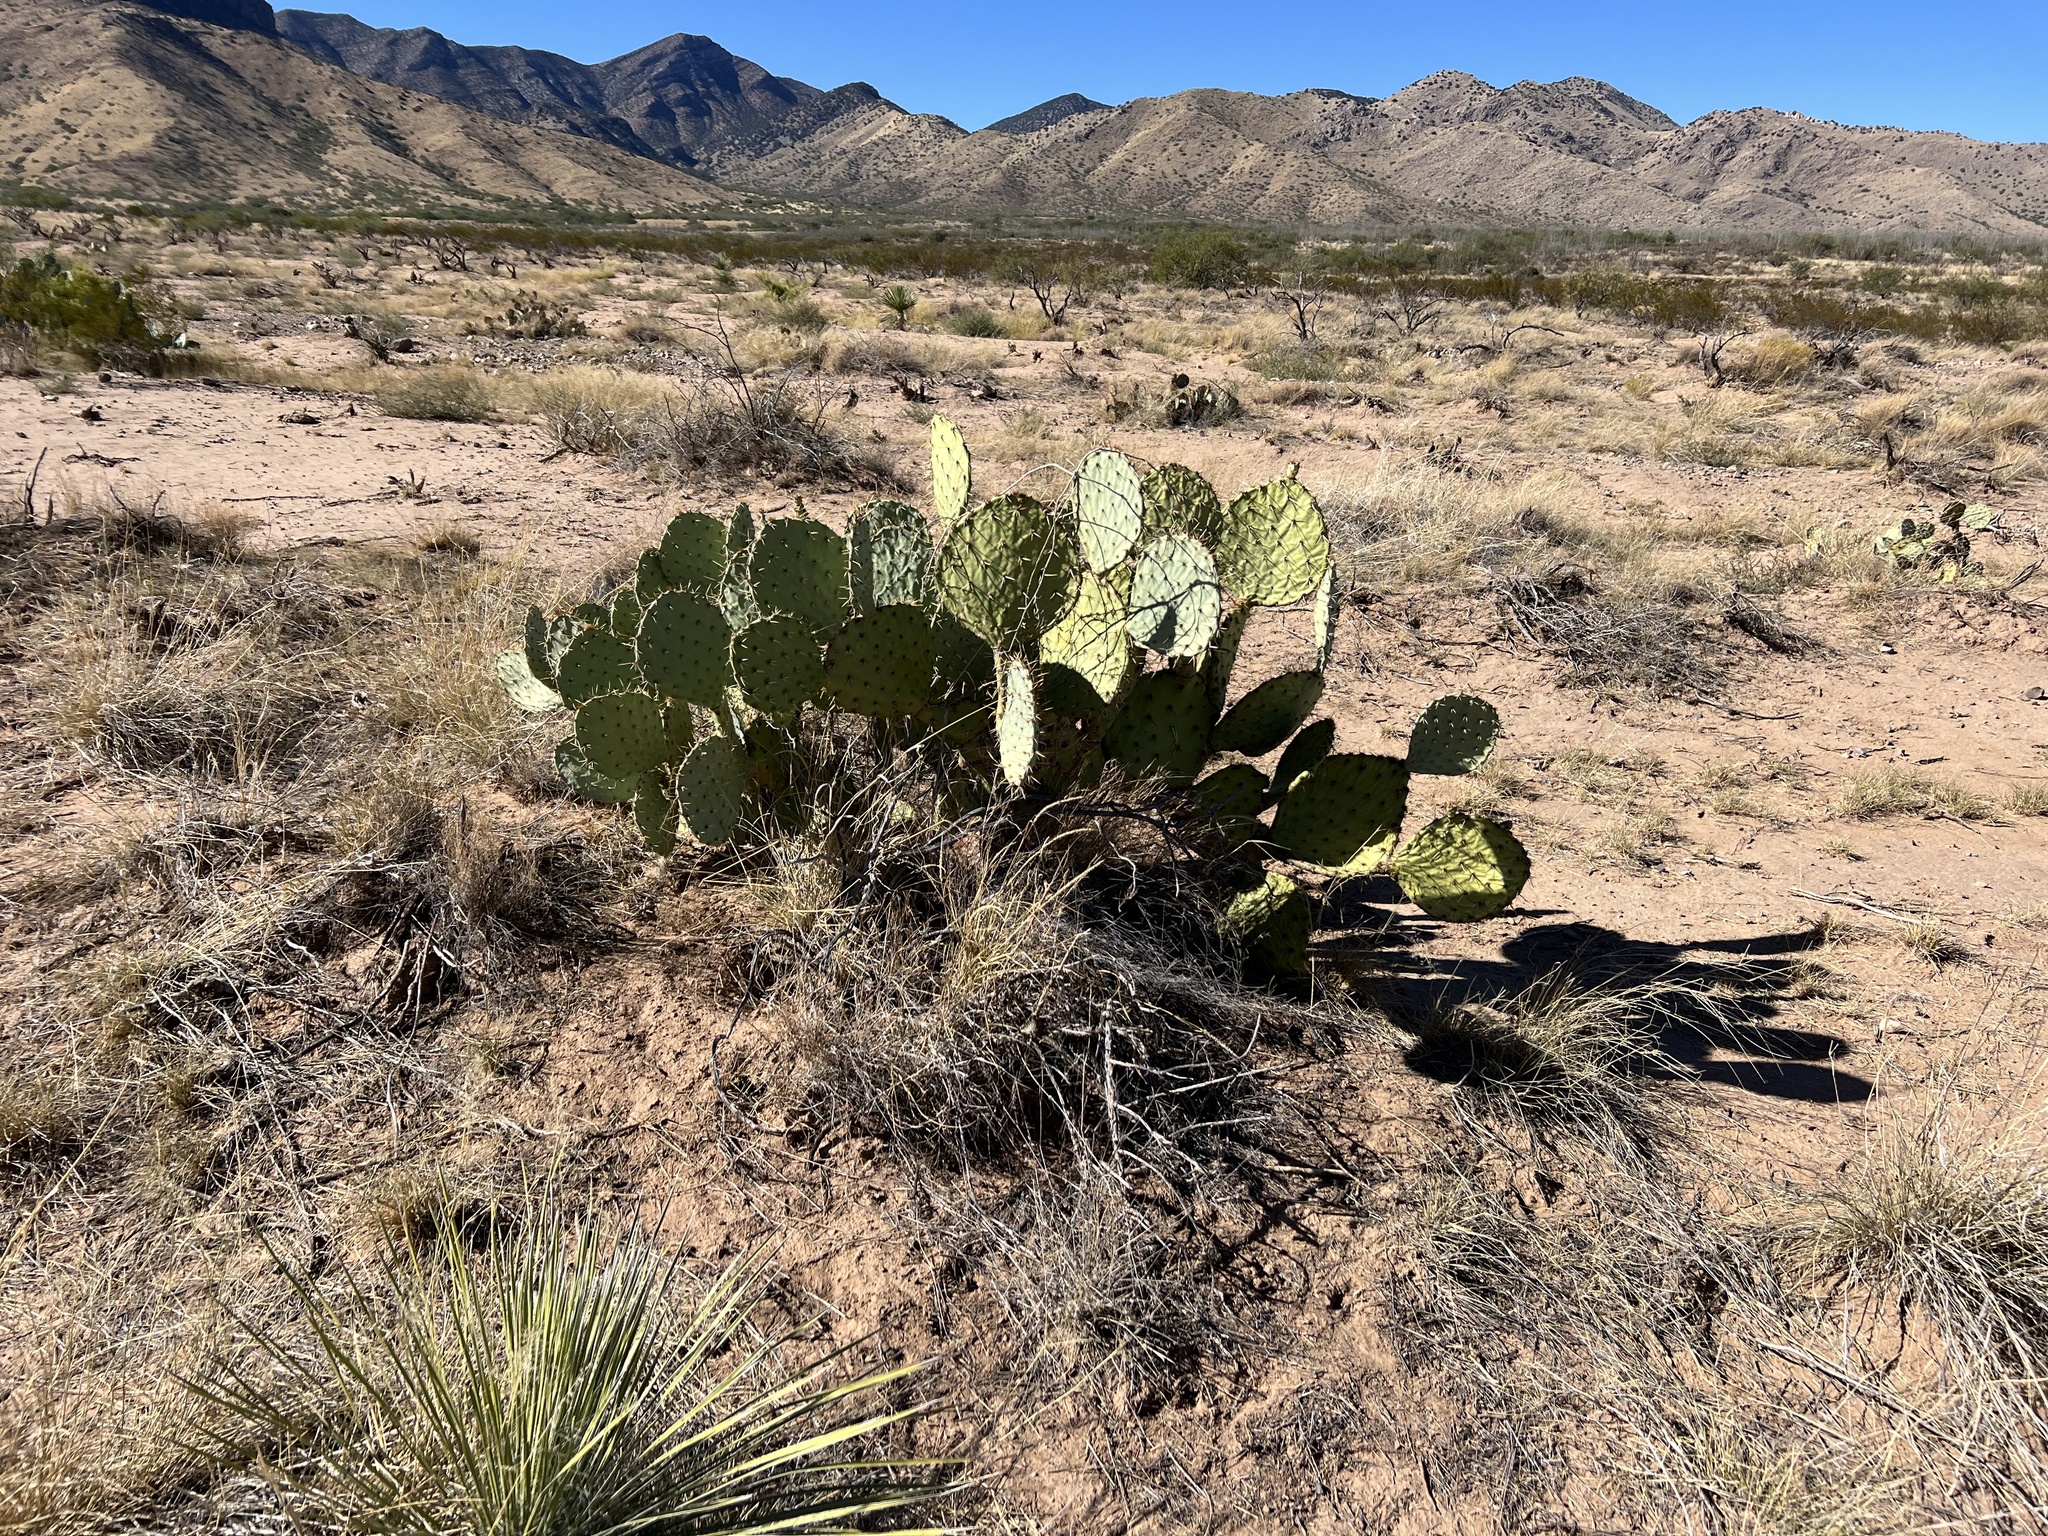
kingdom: Plantae
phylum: Tracheophyta
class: Magnoliopsida
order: Caryophyllales
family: Cactaceae
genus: Opuntia
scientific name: Opuntia engelmannii
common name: Cactus-apple
